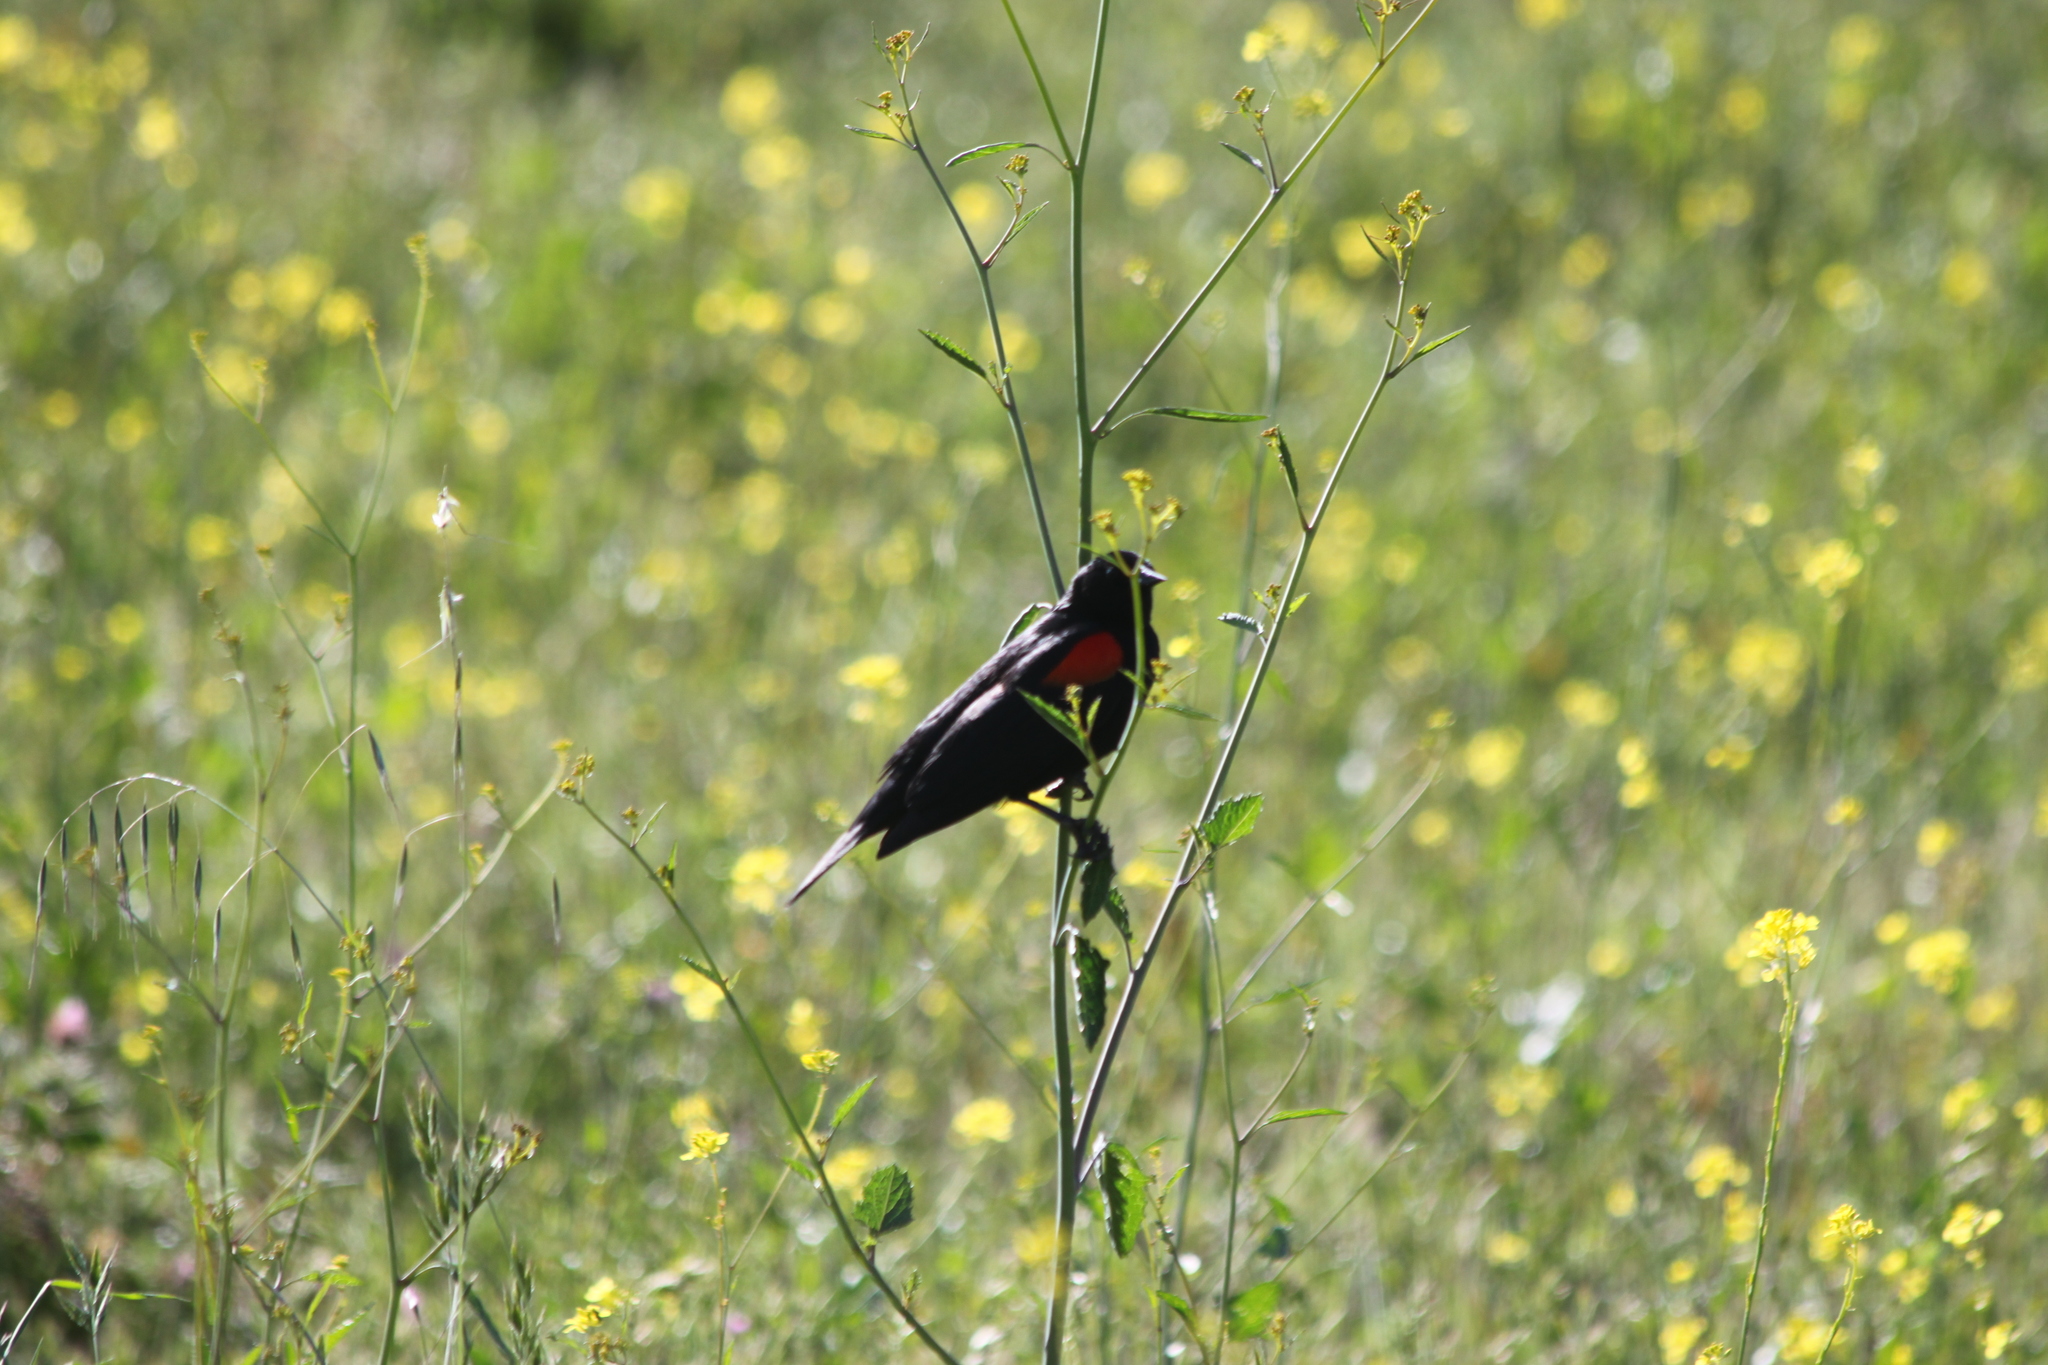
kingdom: Animalia
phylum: Chordata
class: Aves
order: Passeriformes
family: Icteridae
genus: Agelaius
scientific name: Agelaius phoeniceus
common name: Red-winged blackbird
